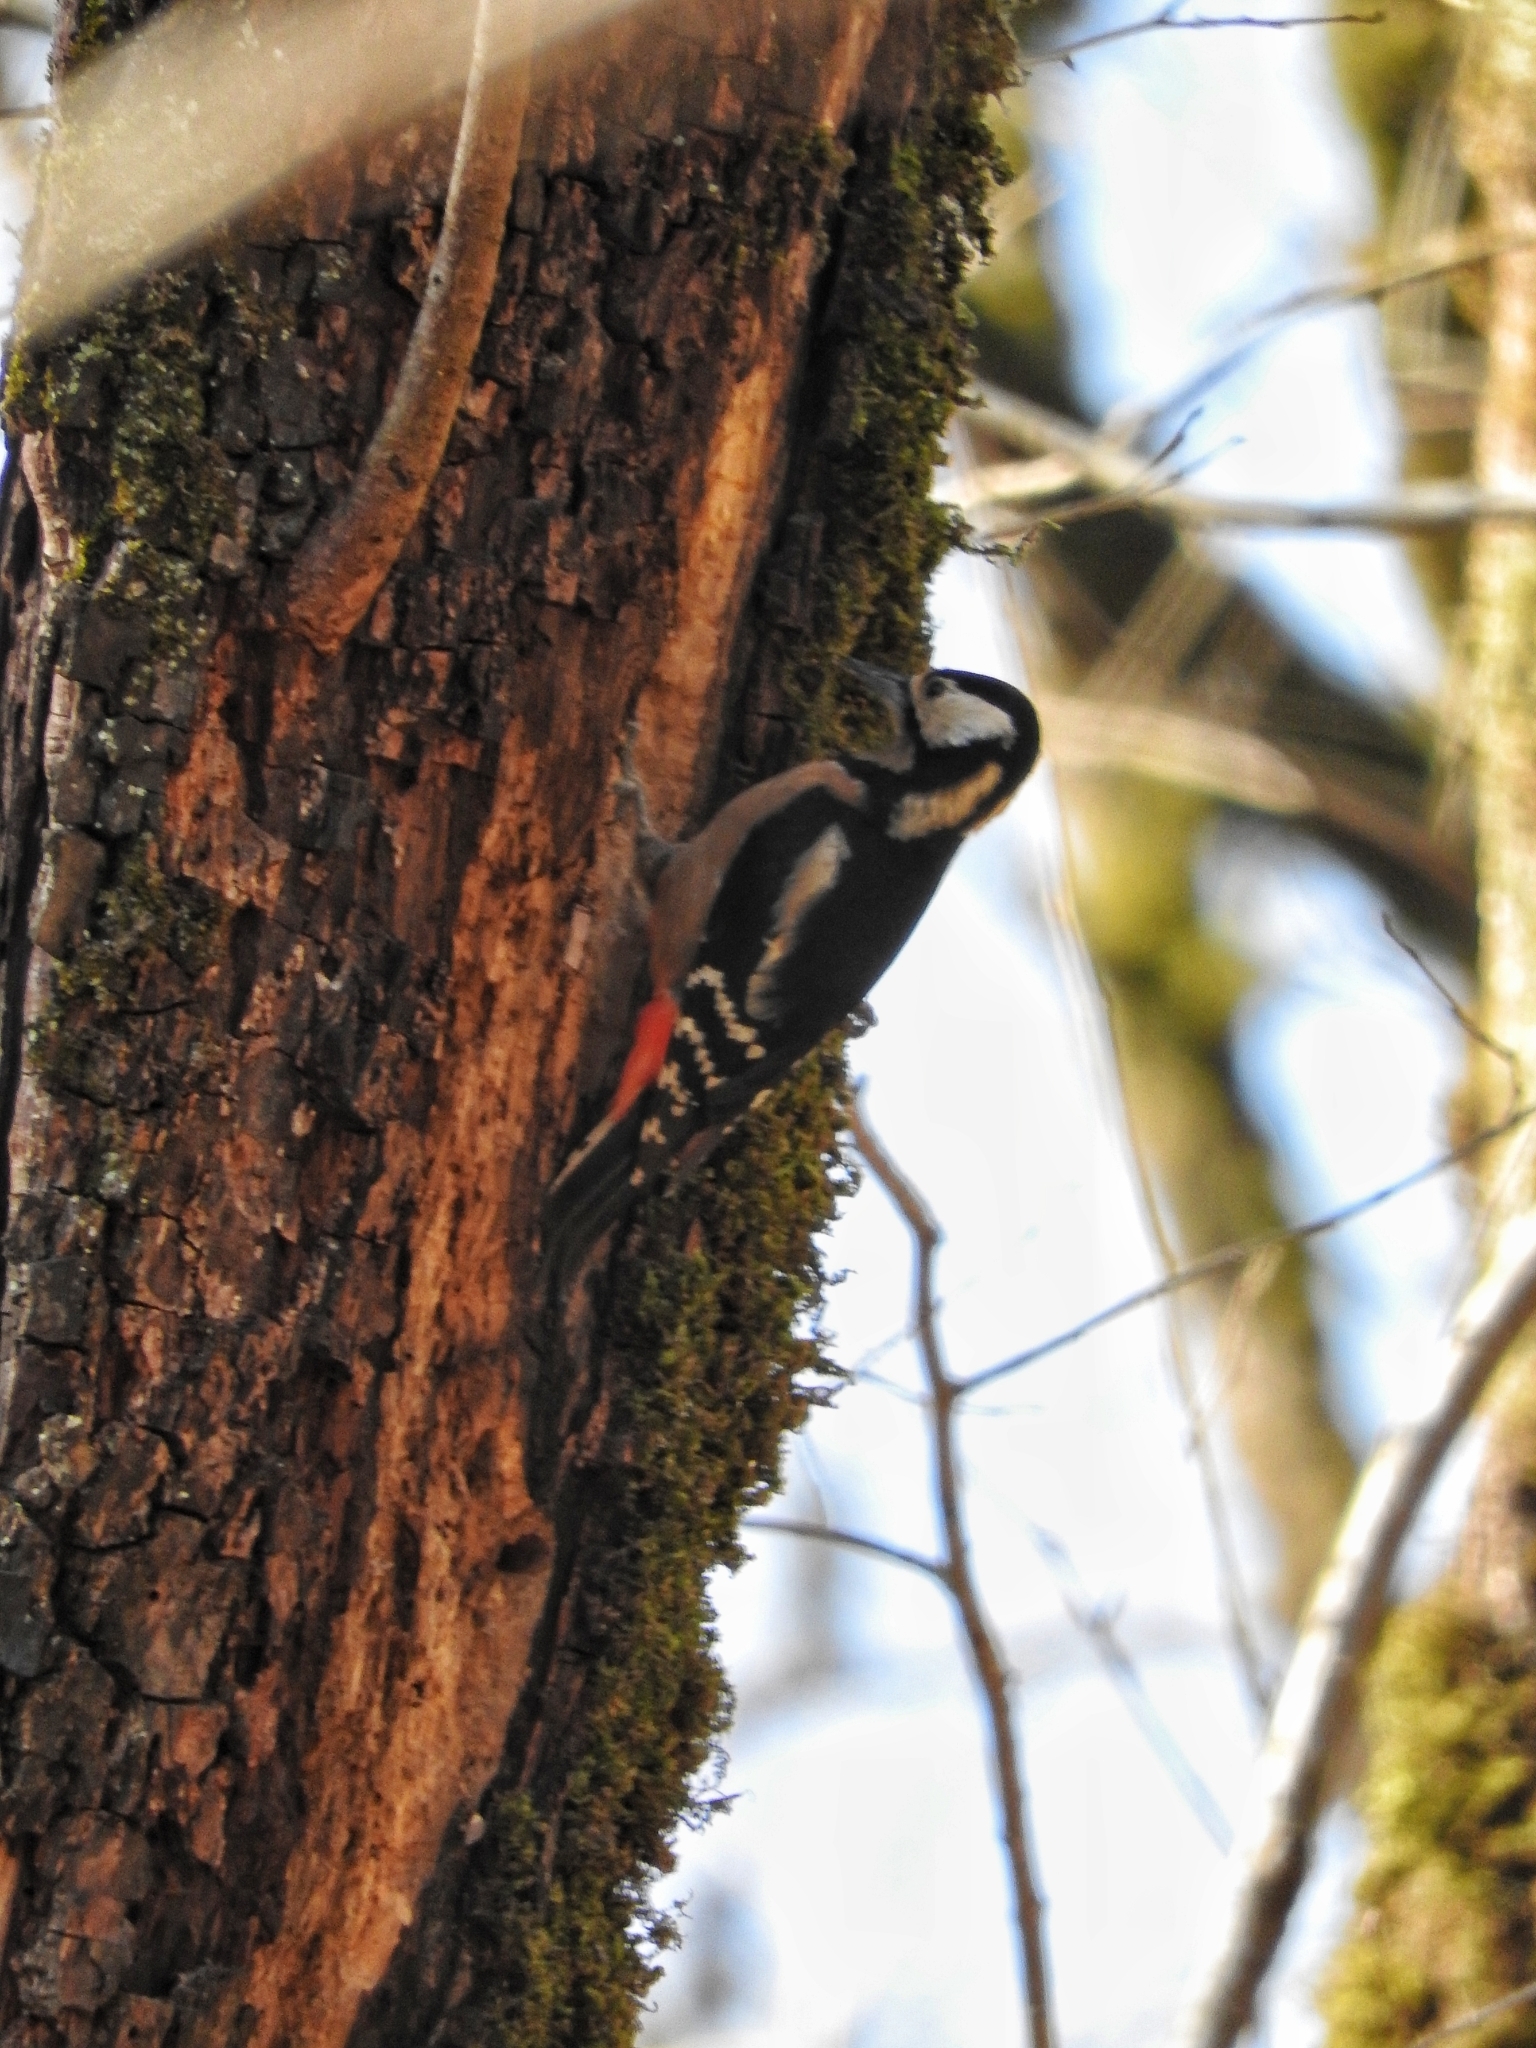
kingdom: Animalia
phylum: Chordata
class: Aves
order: Piciformes
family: Picidae
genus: Dendrocopos
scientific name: Dendrocopos major
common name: Great spotted woodpecker
